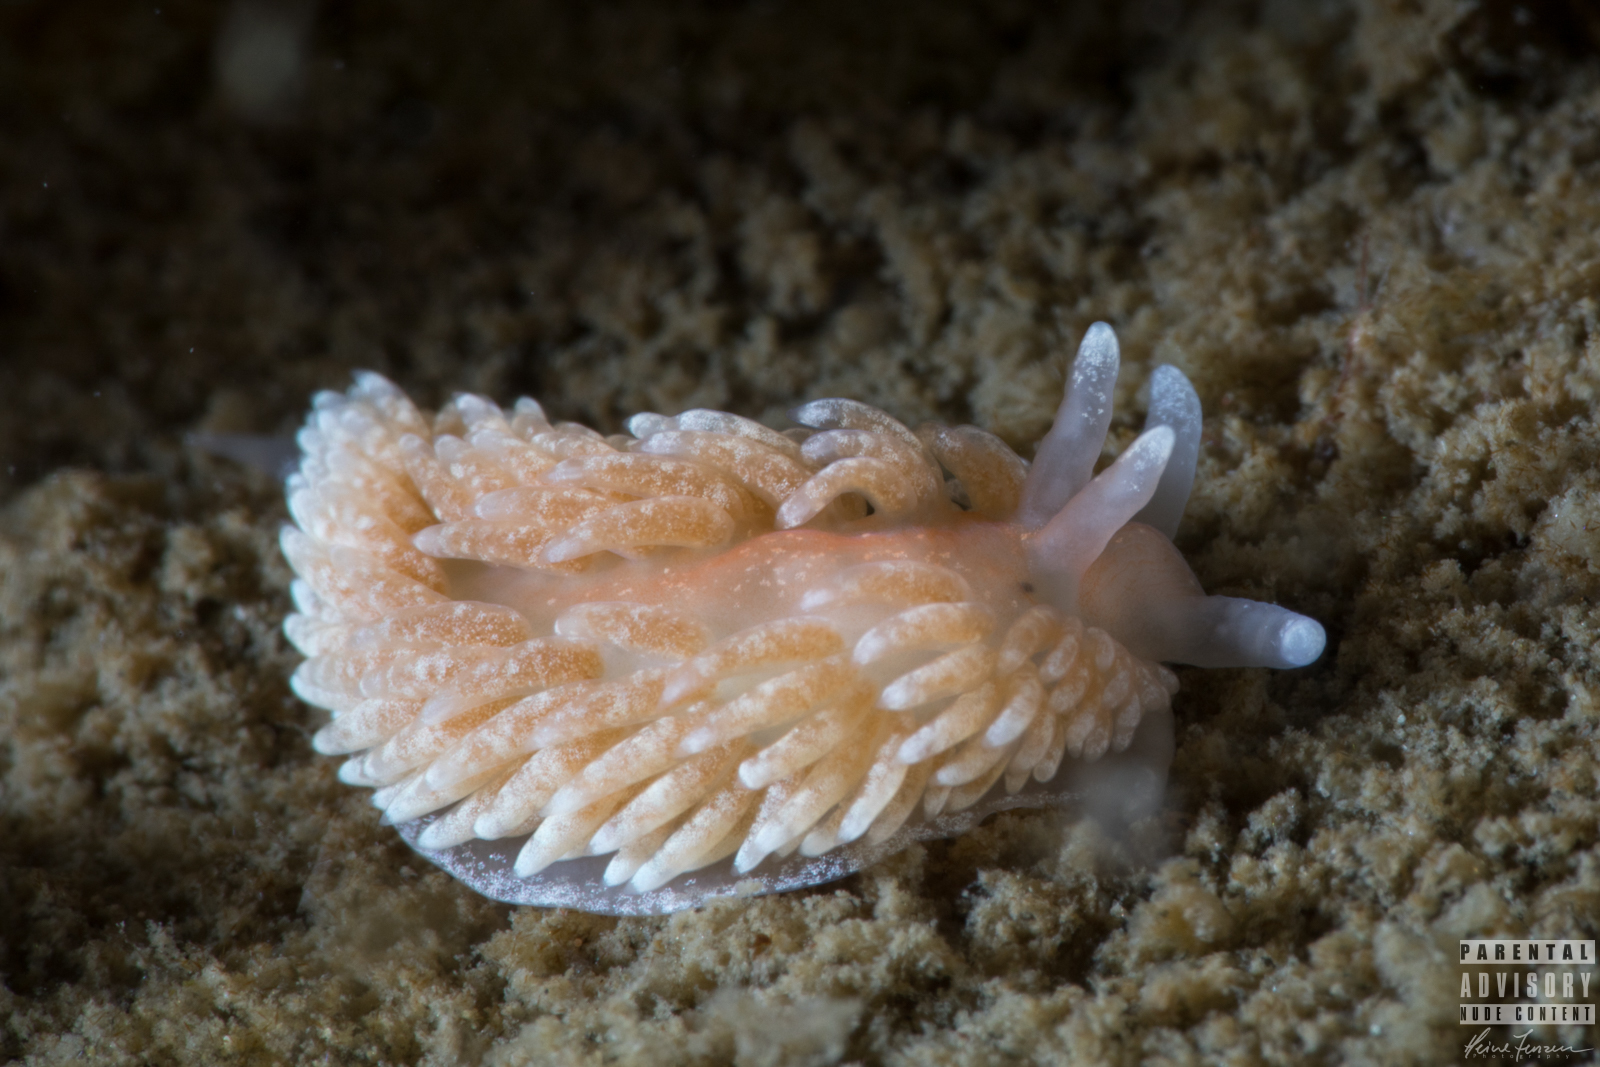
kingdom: Animalia
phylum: Mollusca
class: Gastropoda
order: Nudibranchia
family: Aeolidiidae
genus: Aeolidiella
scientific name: Aeolidiella glauca
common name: Orange-brown aeolid
